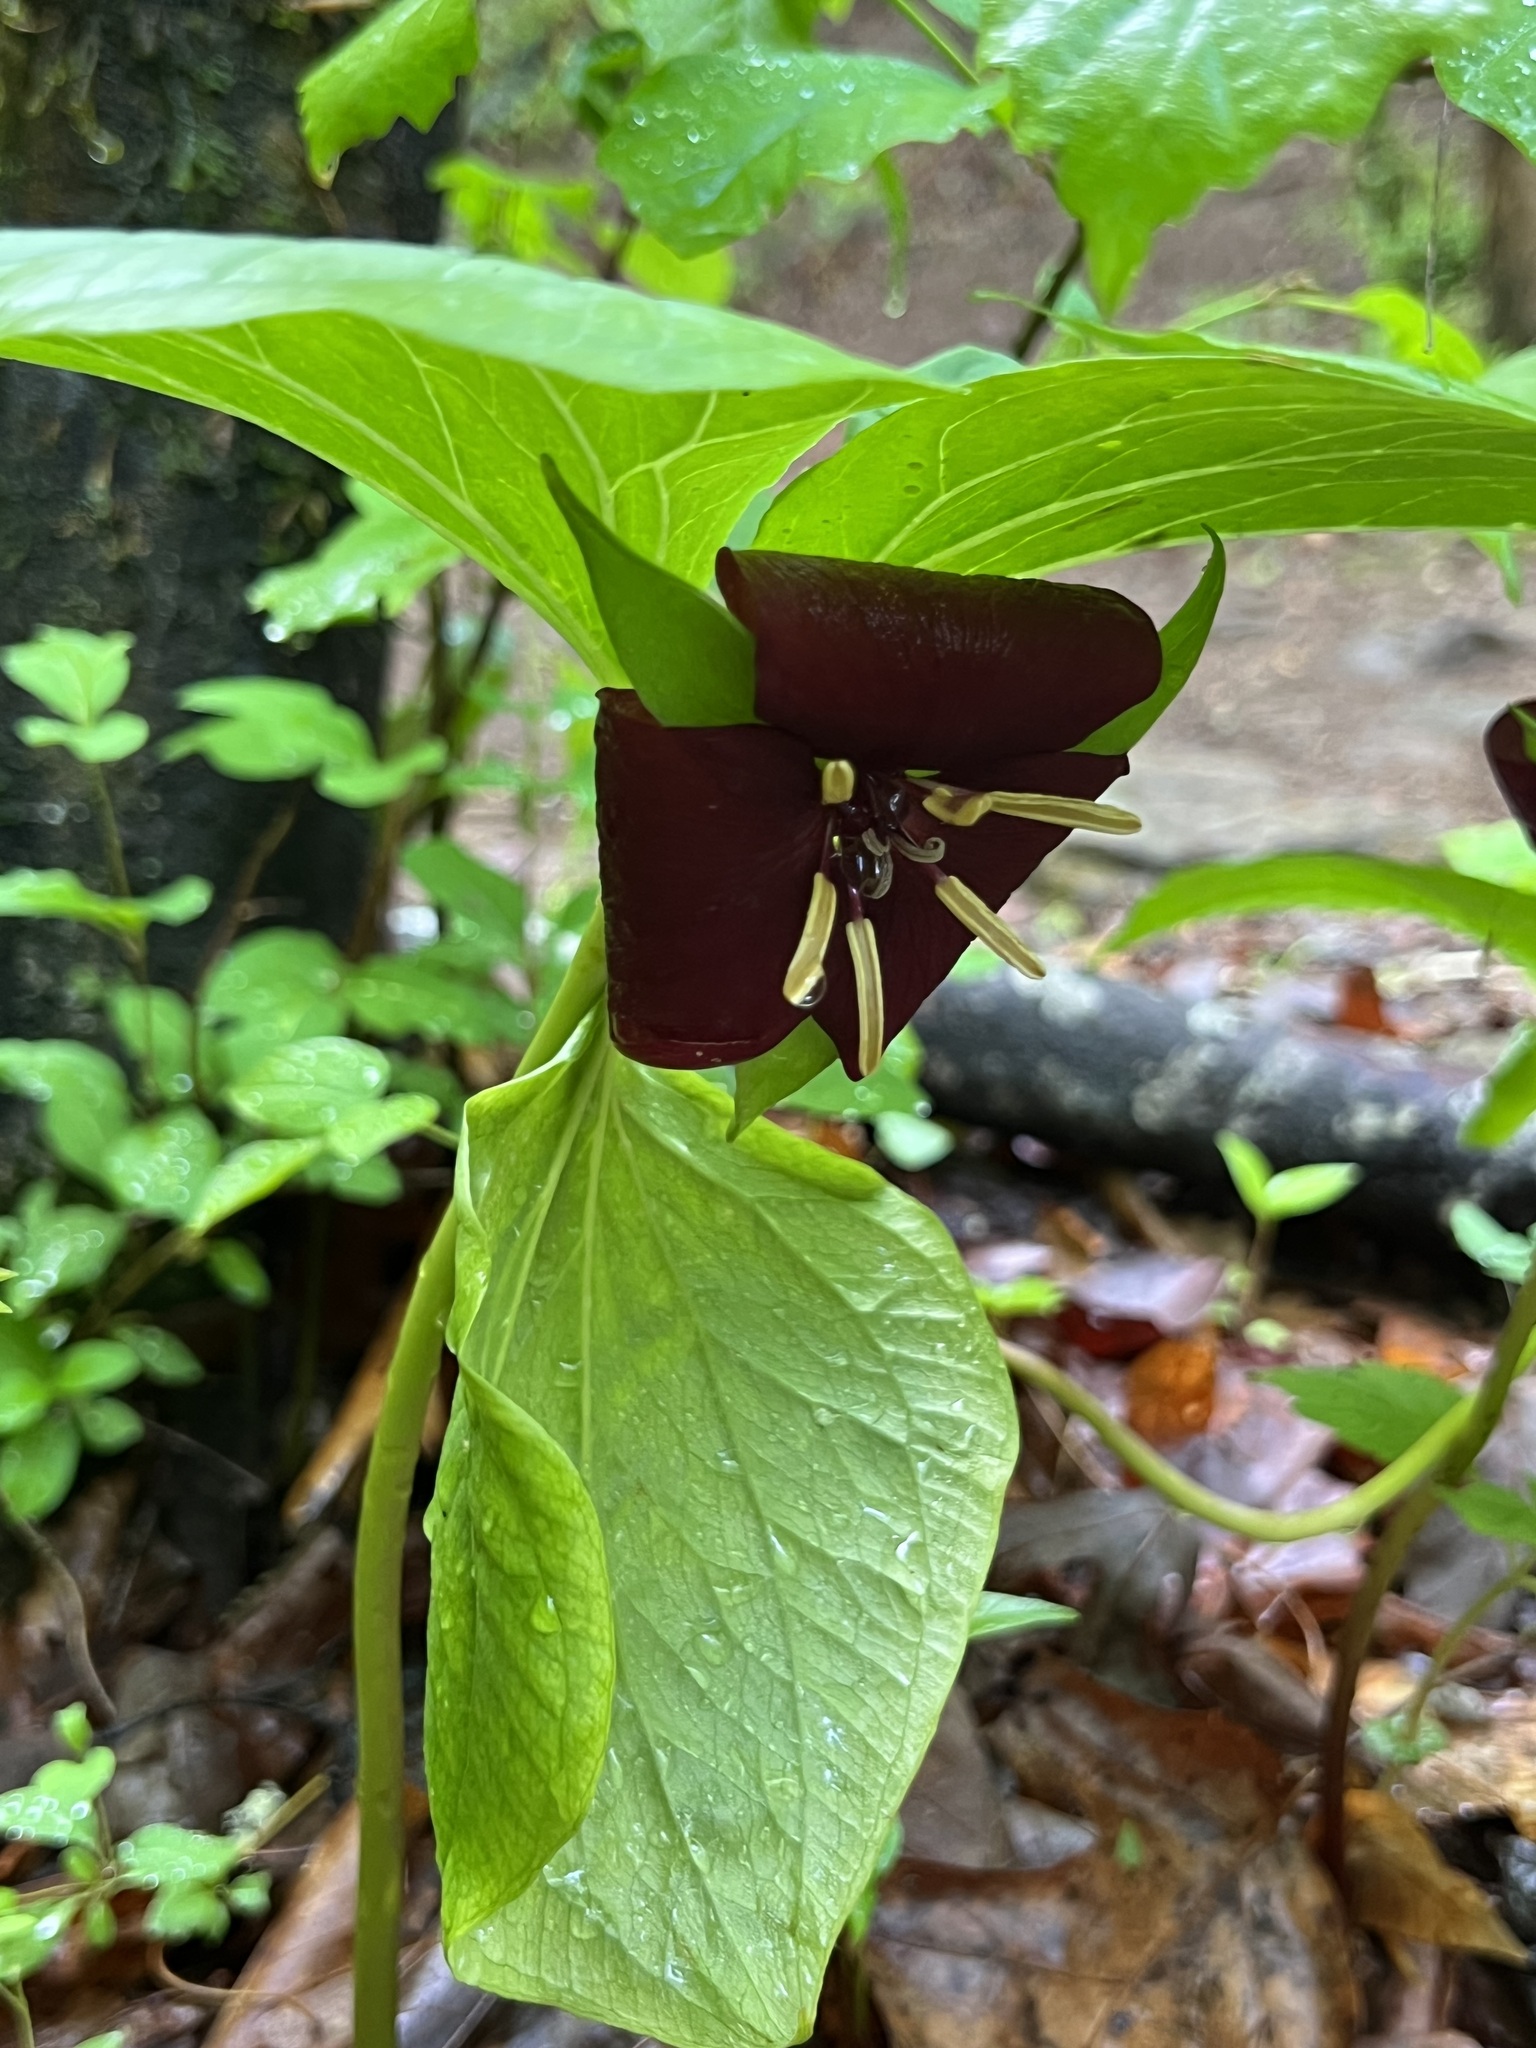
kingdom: Plantae
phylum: Tracheophyta
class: Liliopsida
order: Liliales
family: Melanthiaceae
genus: Trillium
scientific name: Trillium vaseyi
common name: Sweet trillium
